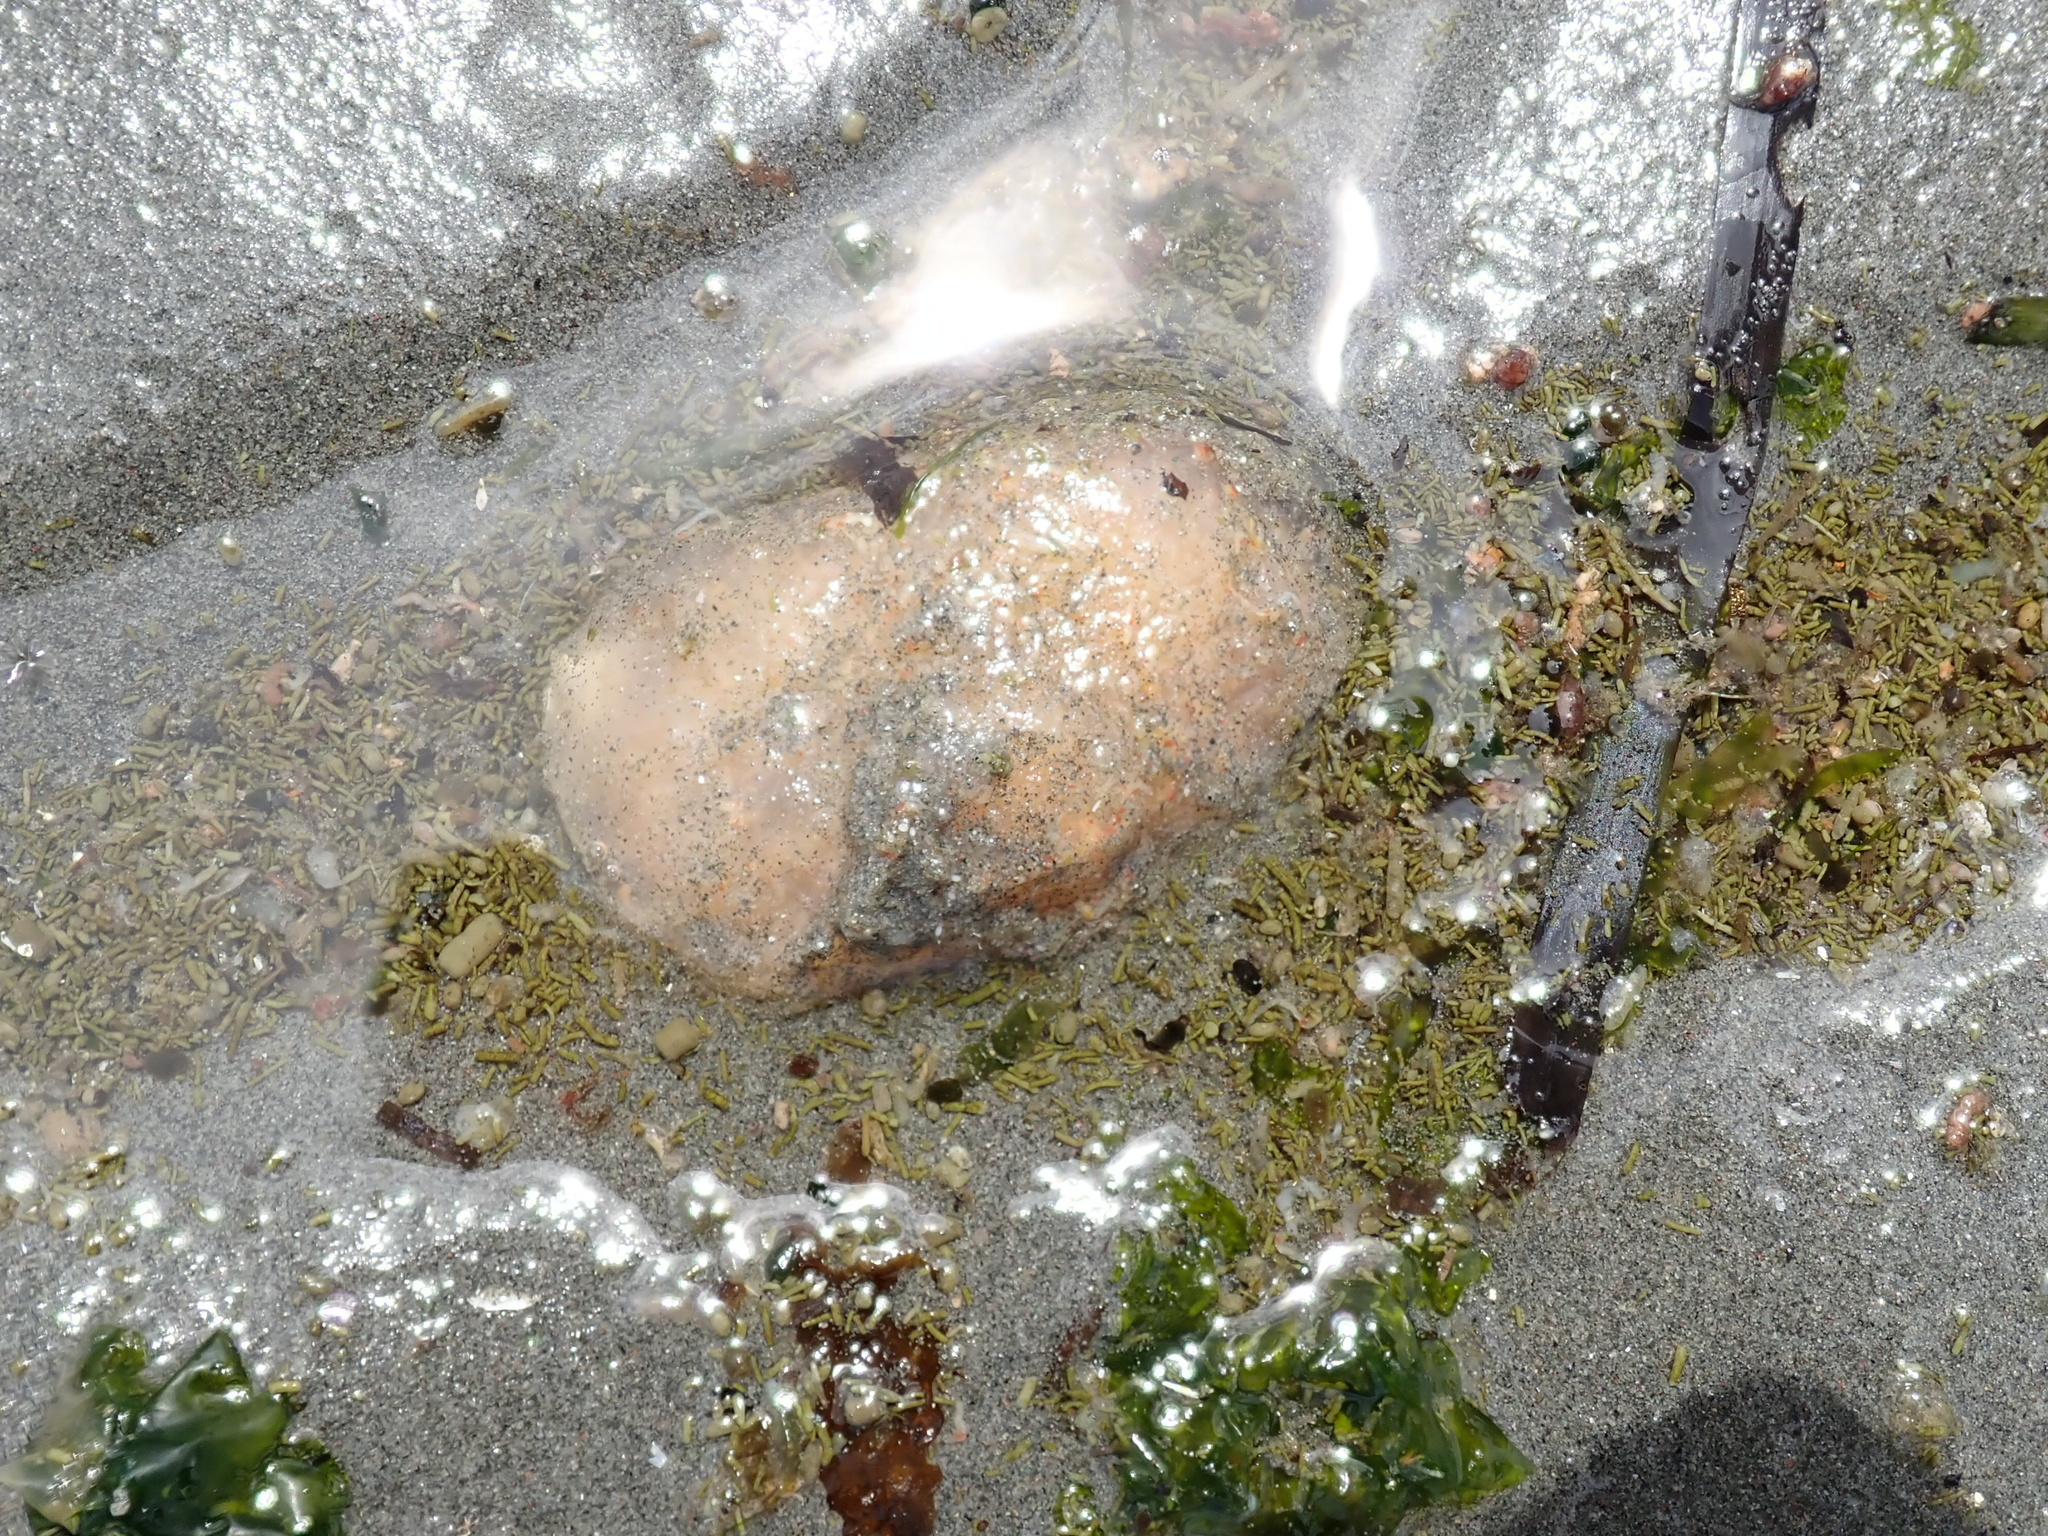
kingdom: Animalia
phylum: Chordata
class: Ascidiacea
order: Aplousobranchia
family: Polyclinidae
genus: Aplidium
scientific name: Aplidium californicum
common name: Sea pork
